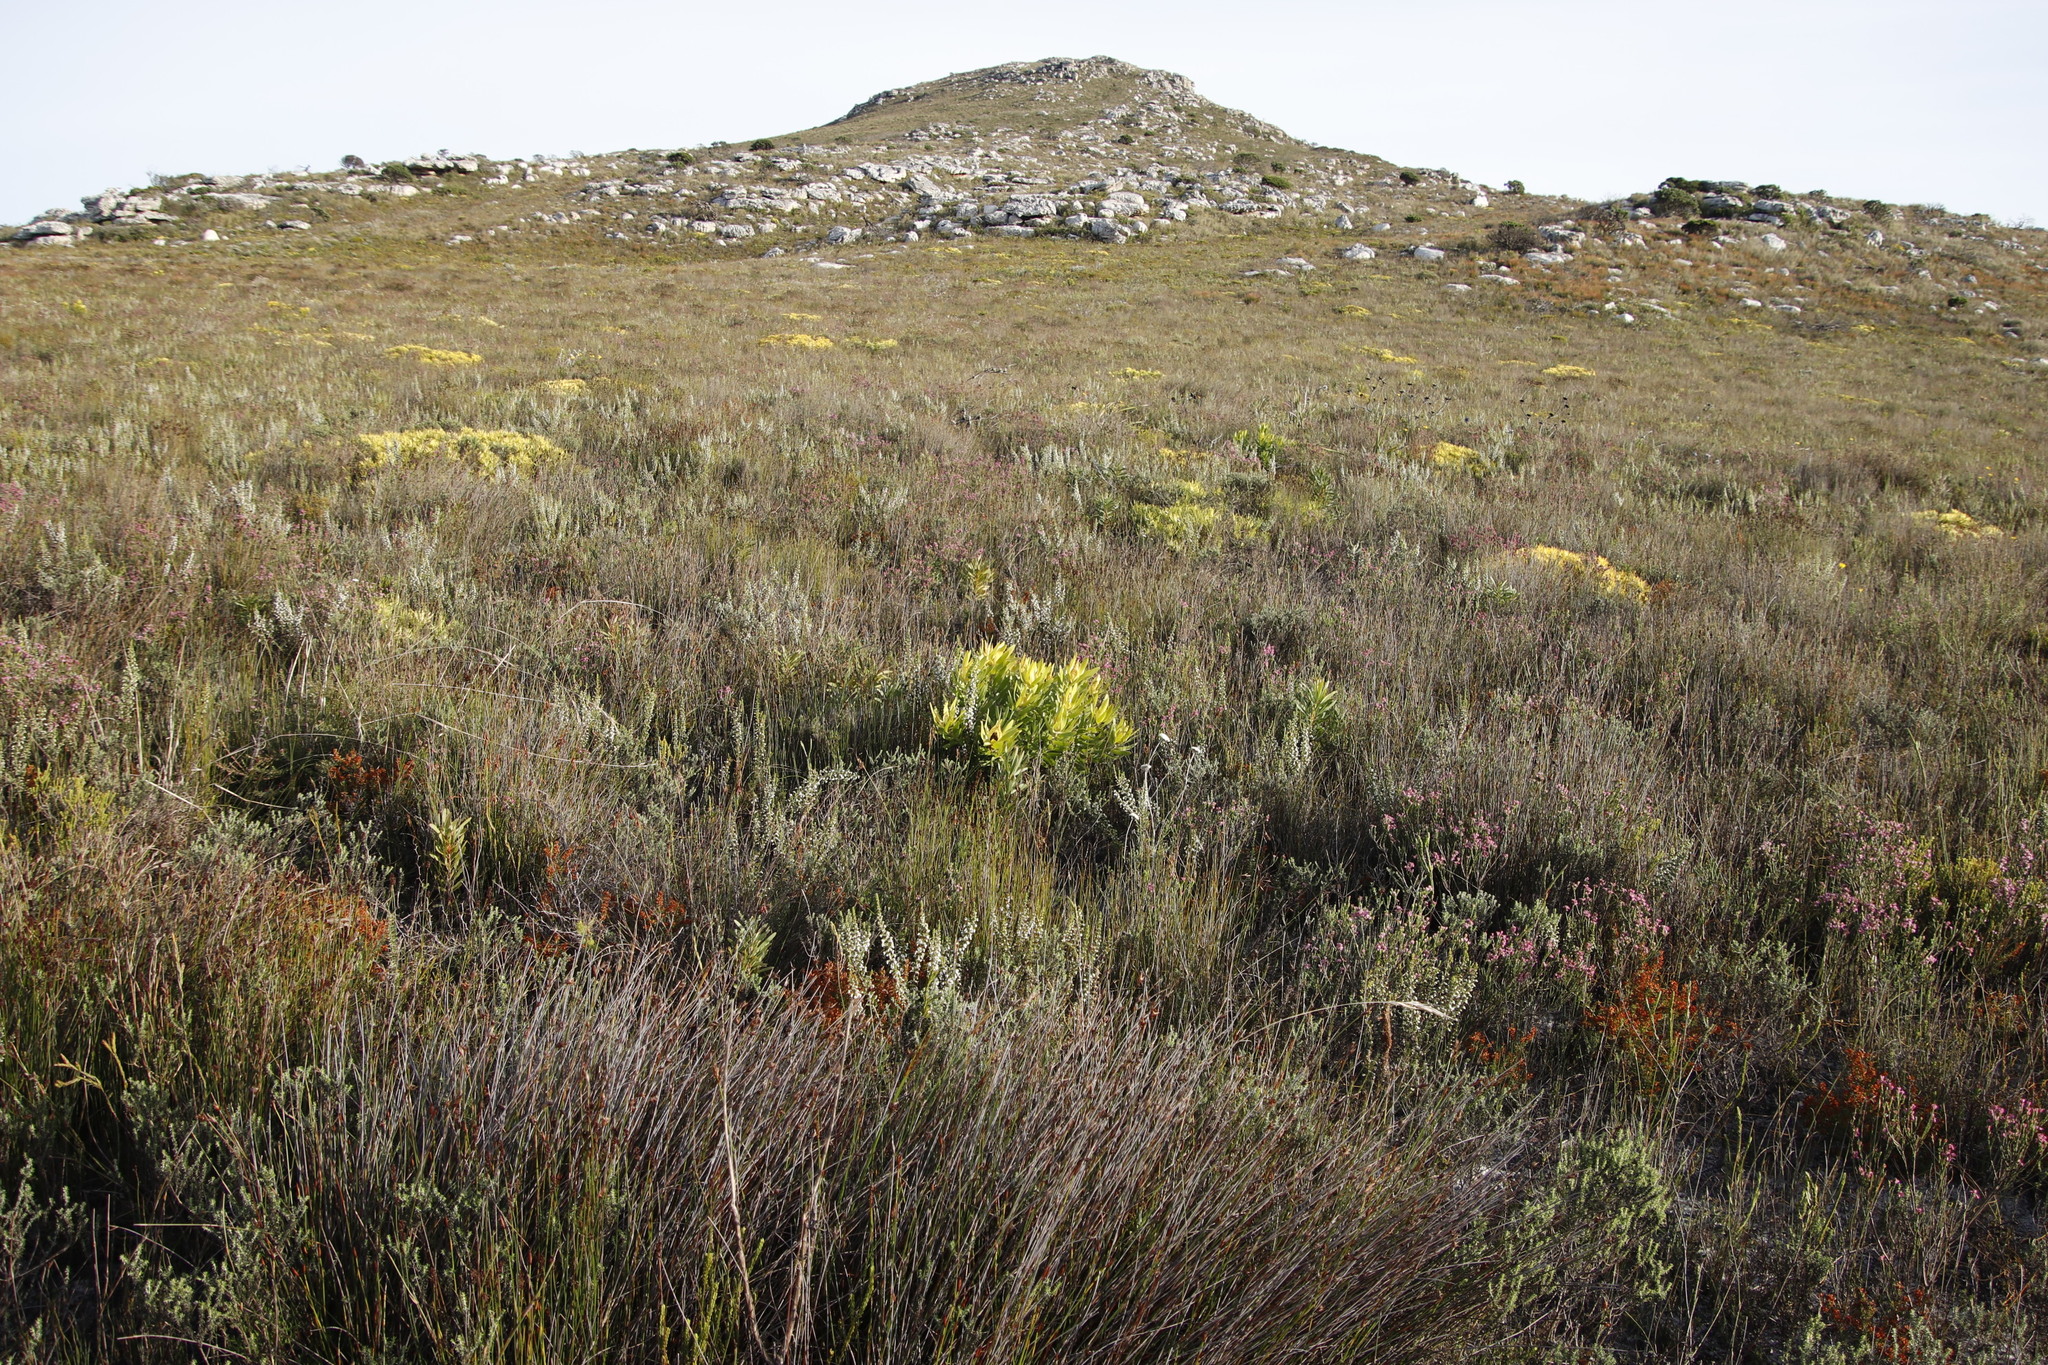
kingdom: Plantae
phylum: Tracheophyta
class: Magnoliopsida
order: Proteales
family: Proteaceae
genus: Leucadendron
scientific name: Leucadendron laureolum
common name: Golden sunshinebush
